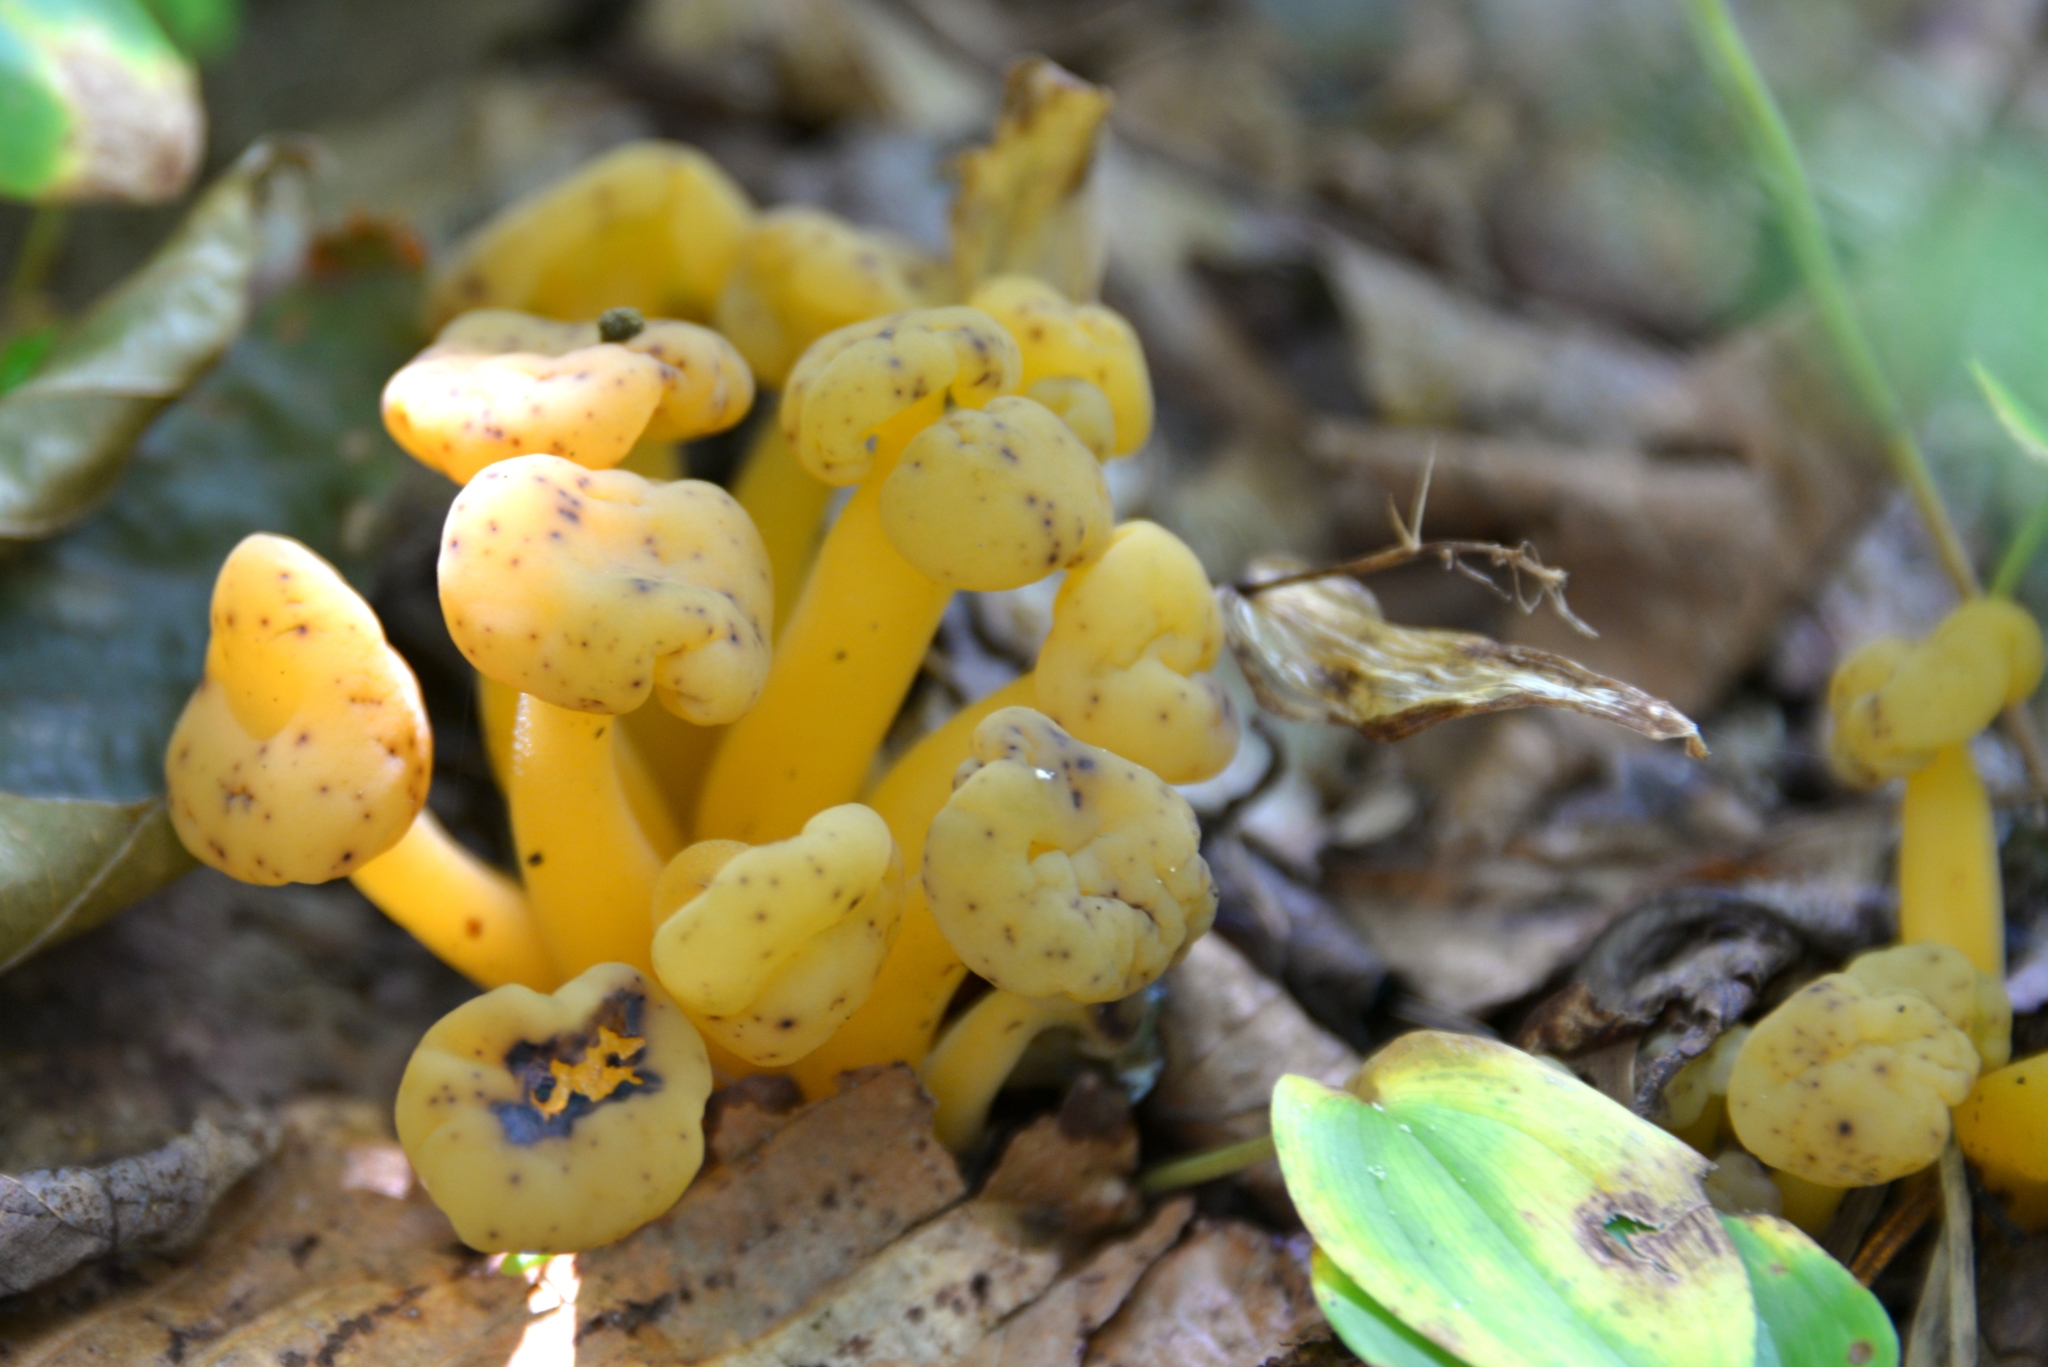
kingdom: Fungi
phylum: Ascomycota
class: Leotiomycetes
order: Leotiales
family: Leotiaceae
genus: Leotia
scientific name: Leotia lubrica
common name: Jellybaby
